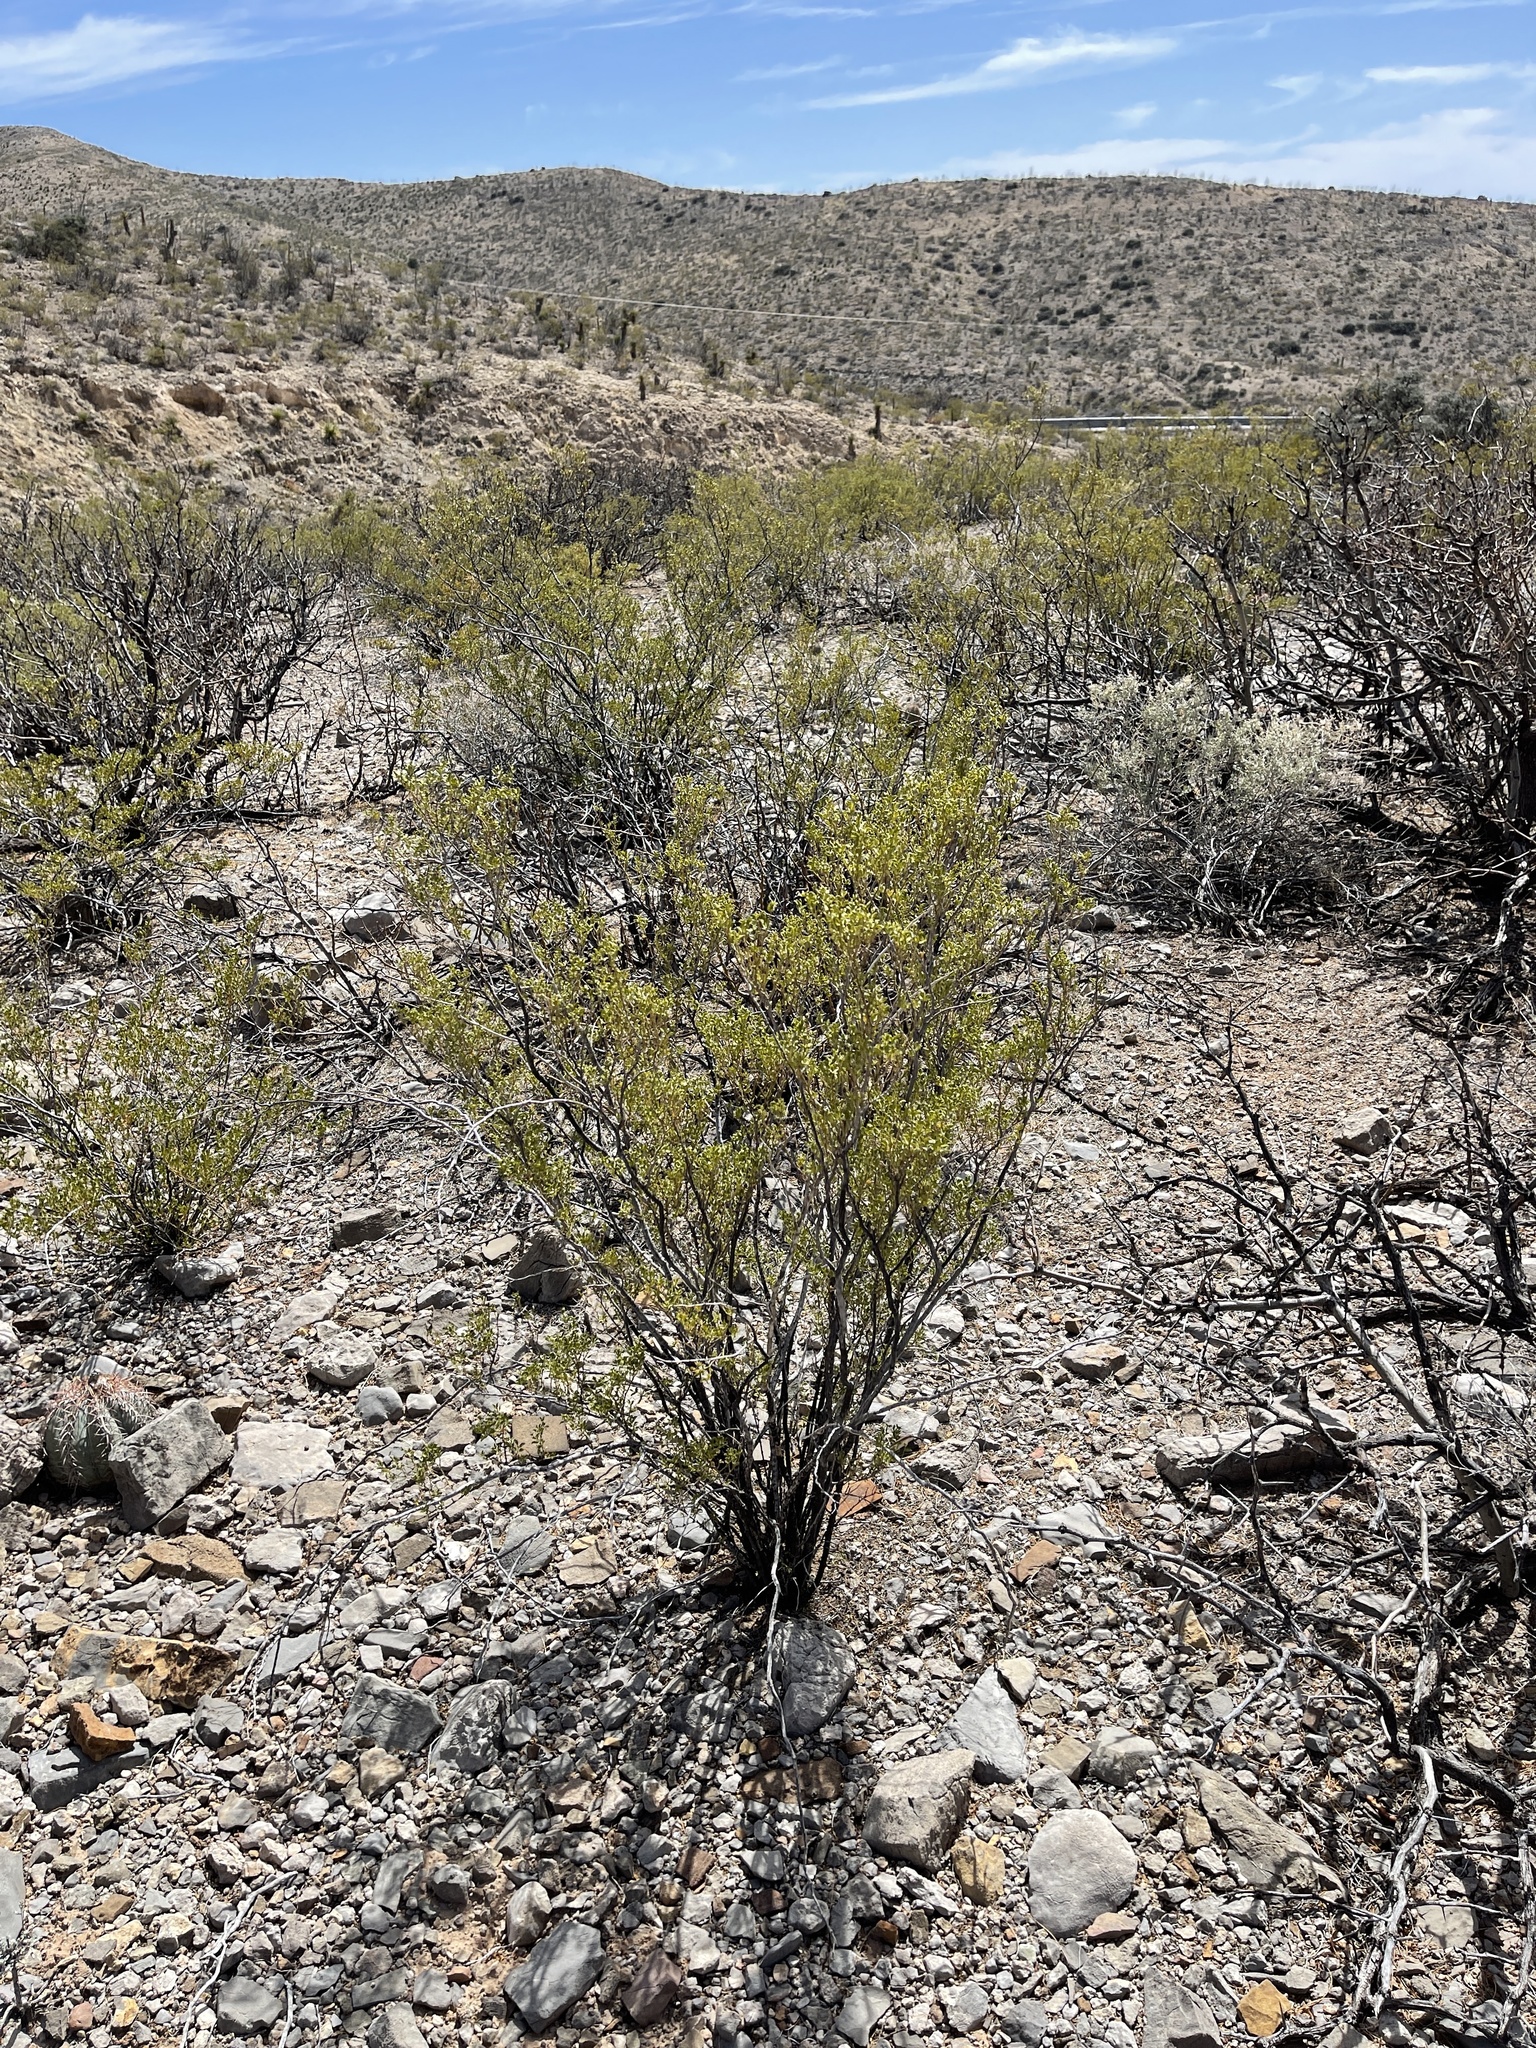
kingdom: Plantae
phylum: Tracheophyta
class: Magnoliopsida
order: Zygophyllales
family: Zygophyllaceae
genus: Larrea
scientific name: Larrea tridentata
